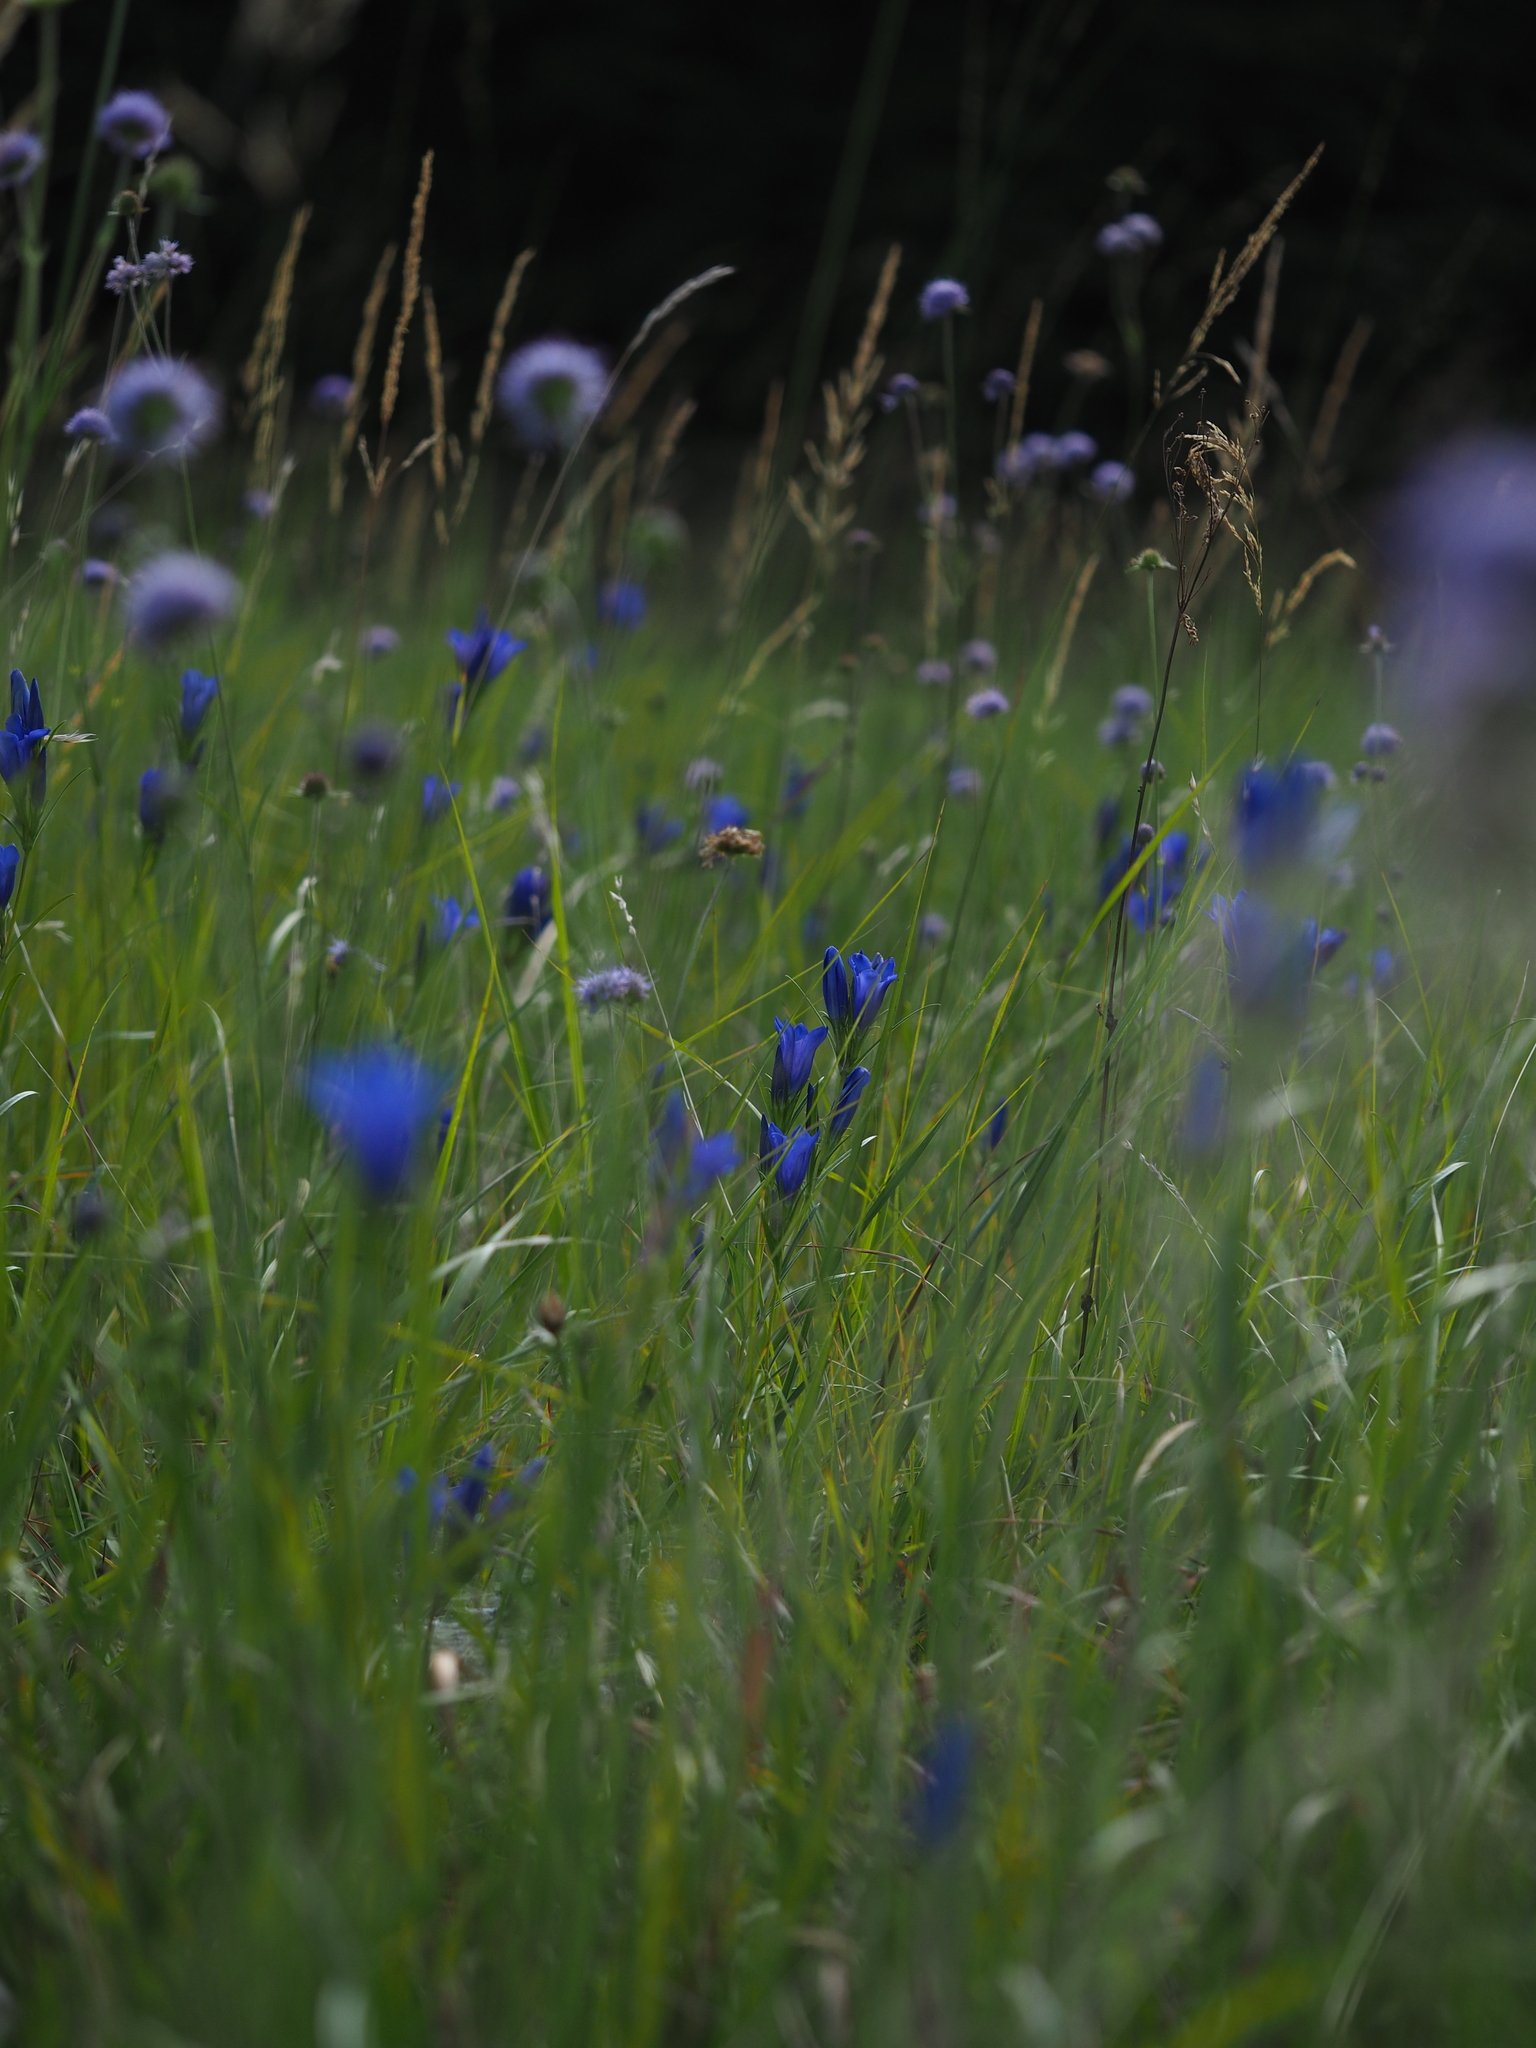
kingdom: Plantae
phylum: Tracheophyta
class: Magnoliopsida
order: Gentianales
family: Gentianaceae
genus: Gentiana
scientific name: Gentiana pneumonanthe
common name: Marsh gentian
